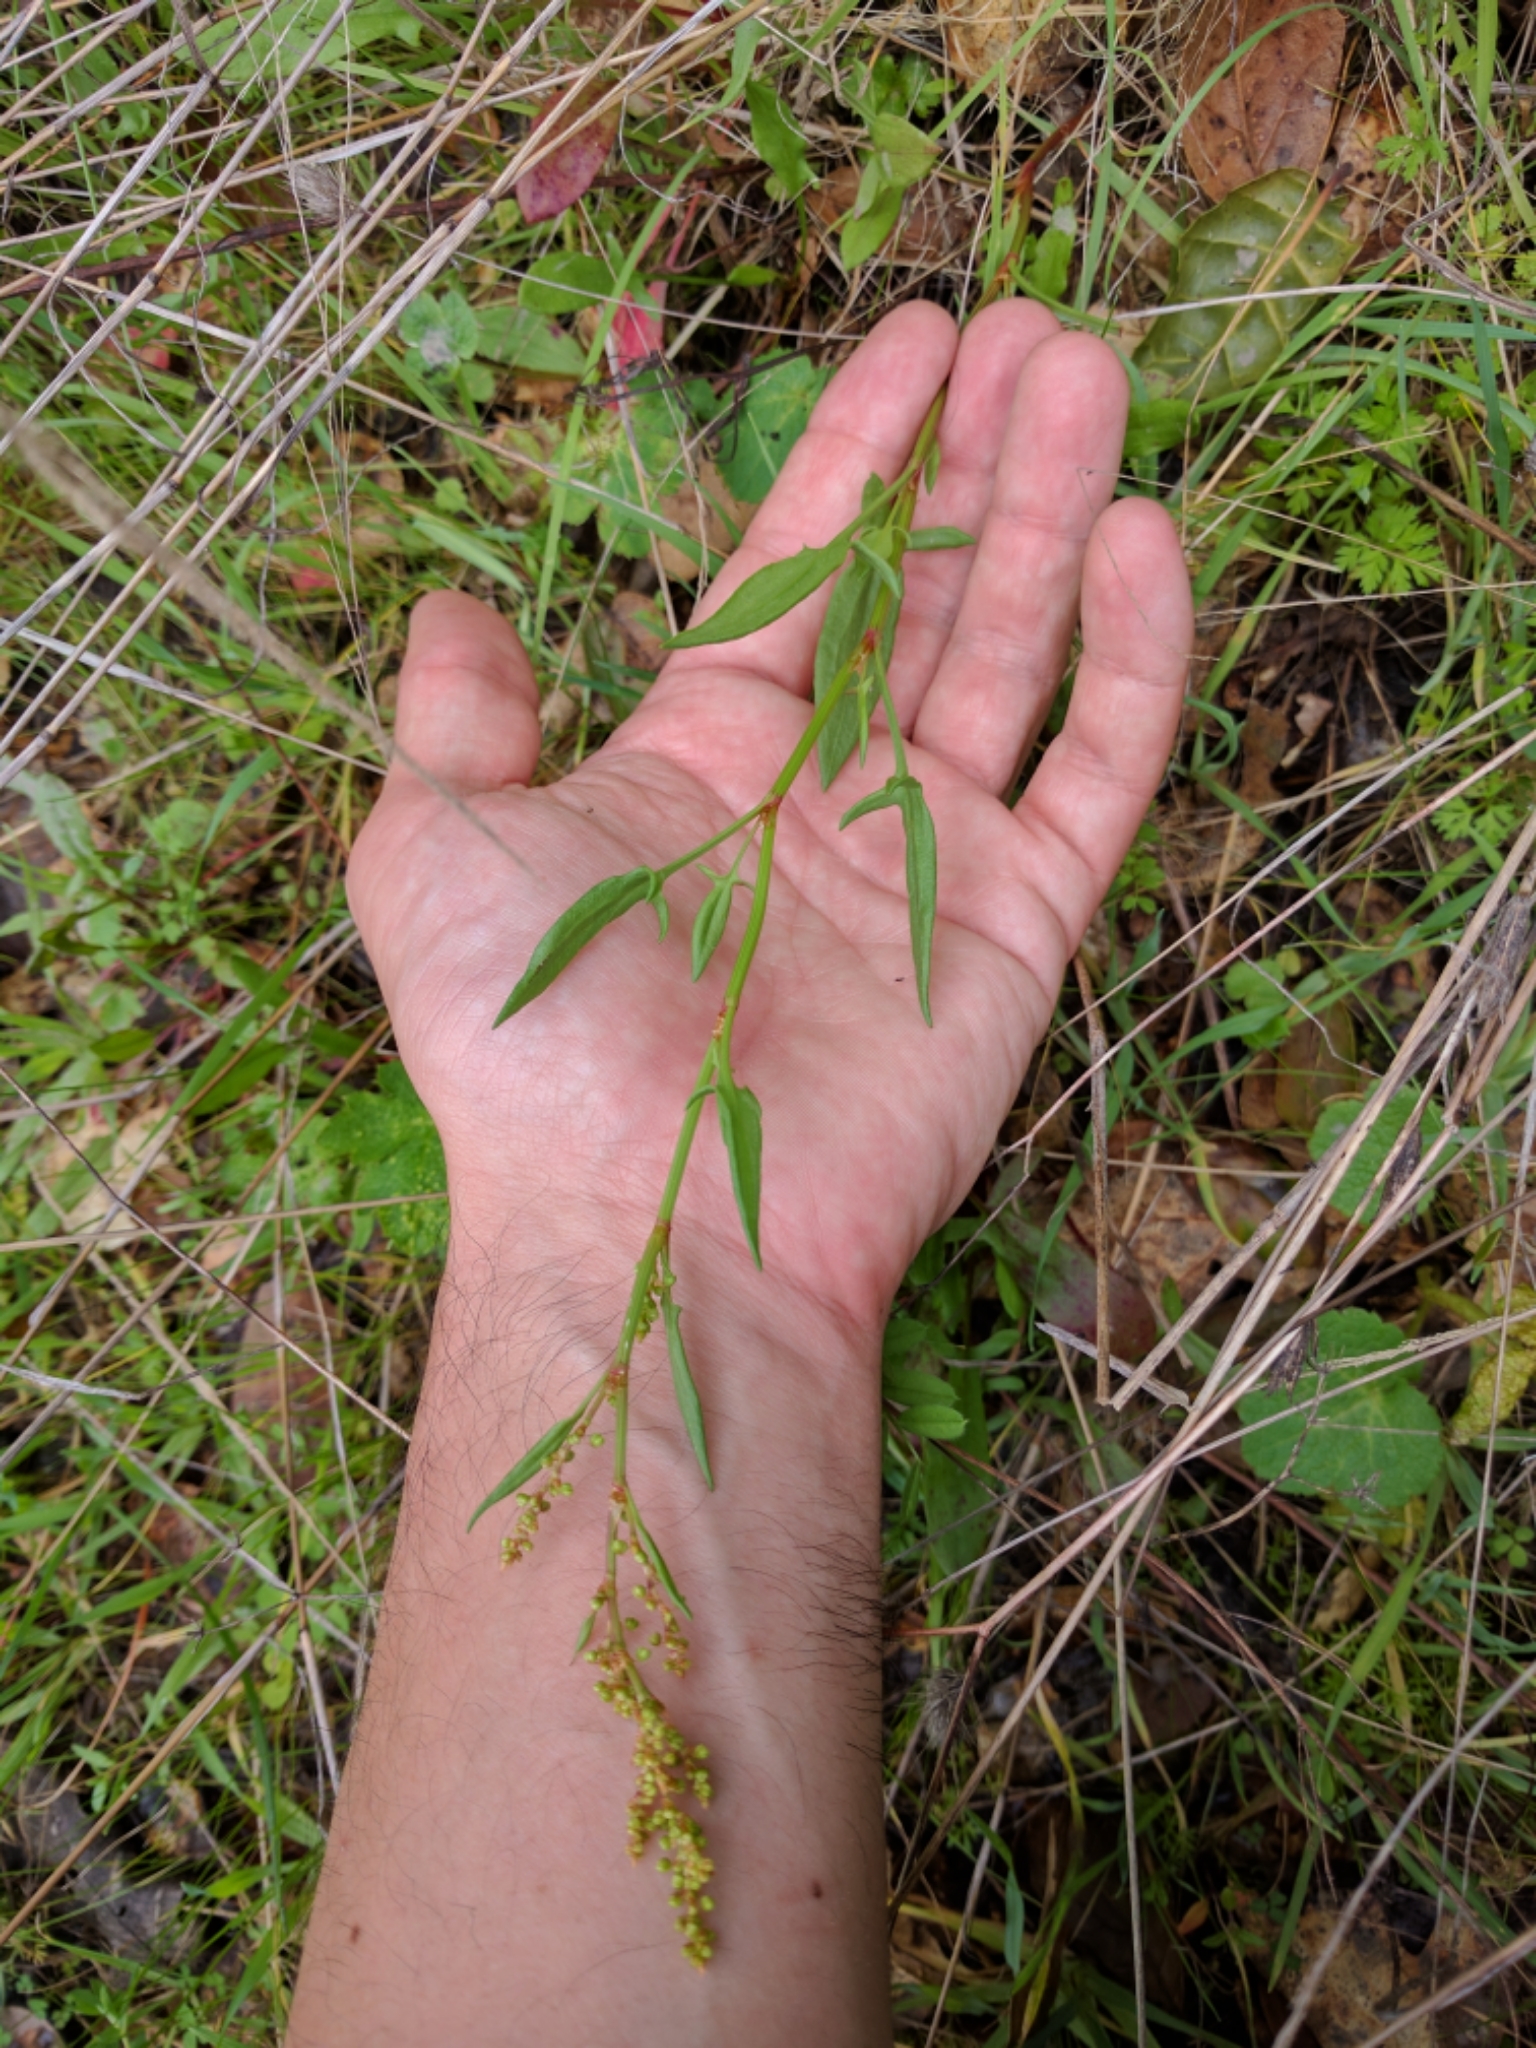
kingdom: Plantae
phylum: Tracheophyta
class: Magnoliopsida
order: Caryophyllales
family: Polygonaceae
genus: Rumex
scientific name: Rumex acetosella
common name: Common sheep sorrel
